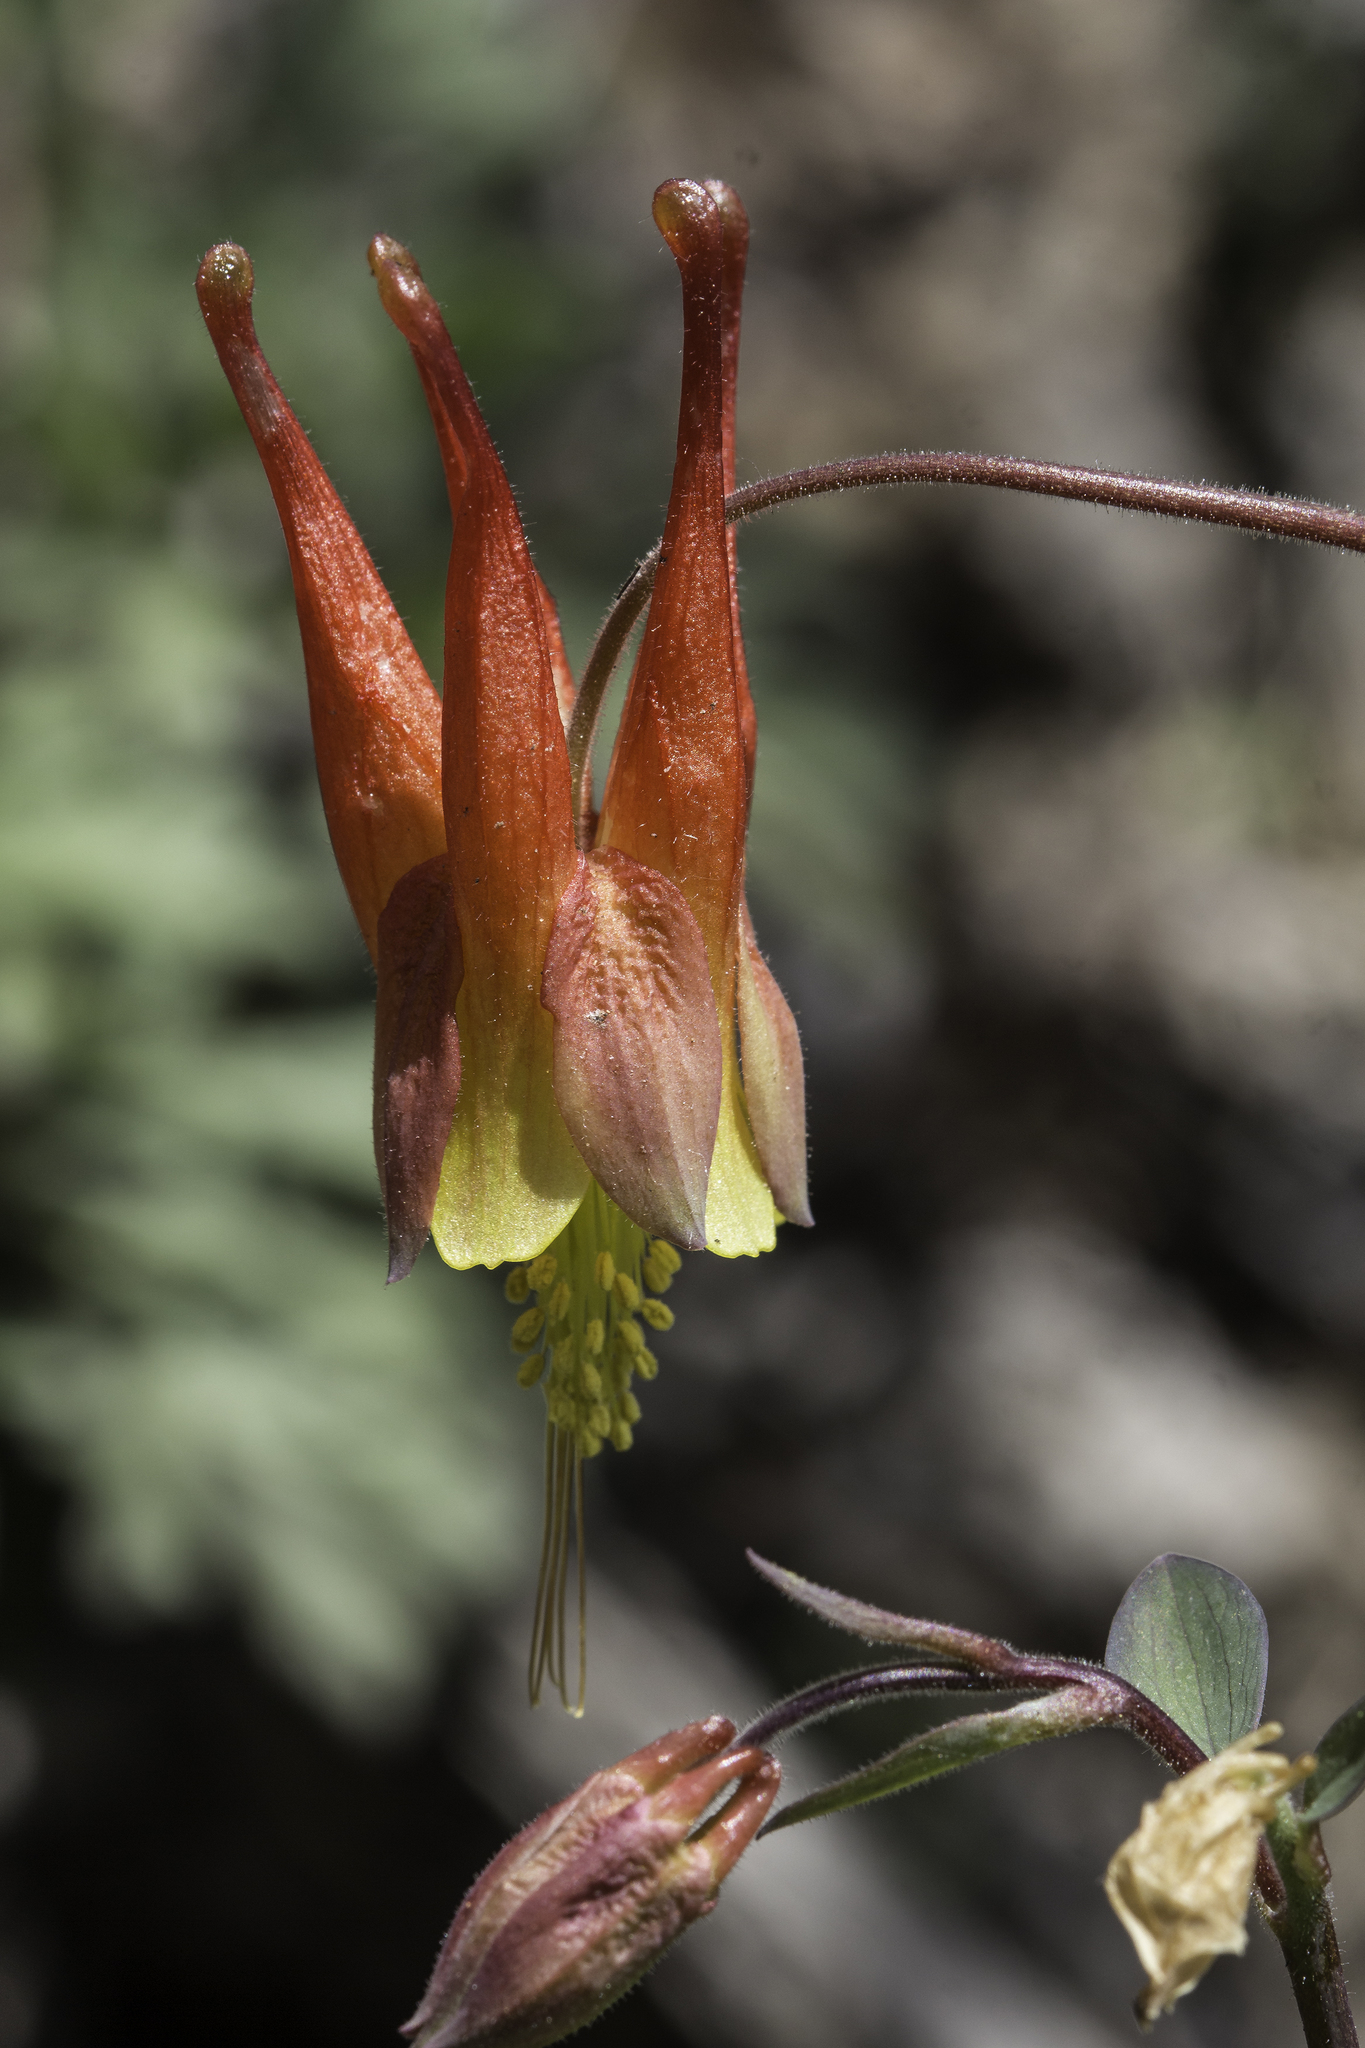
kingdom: Plantae
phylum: Tracheophyta
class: Magnoliopsida
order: Ranunculales
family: Ranunculaceae
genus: Aquilegia
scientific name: Aquilegia elegantula
